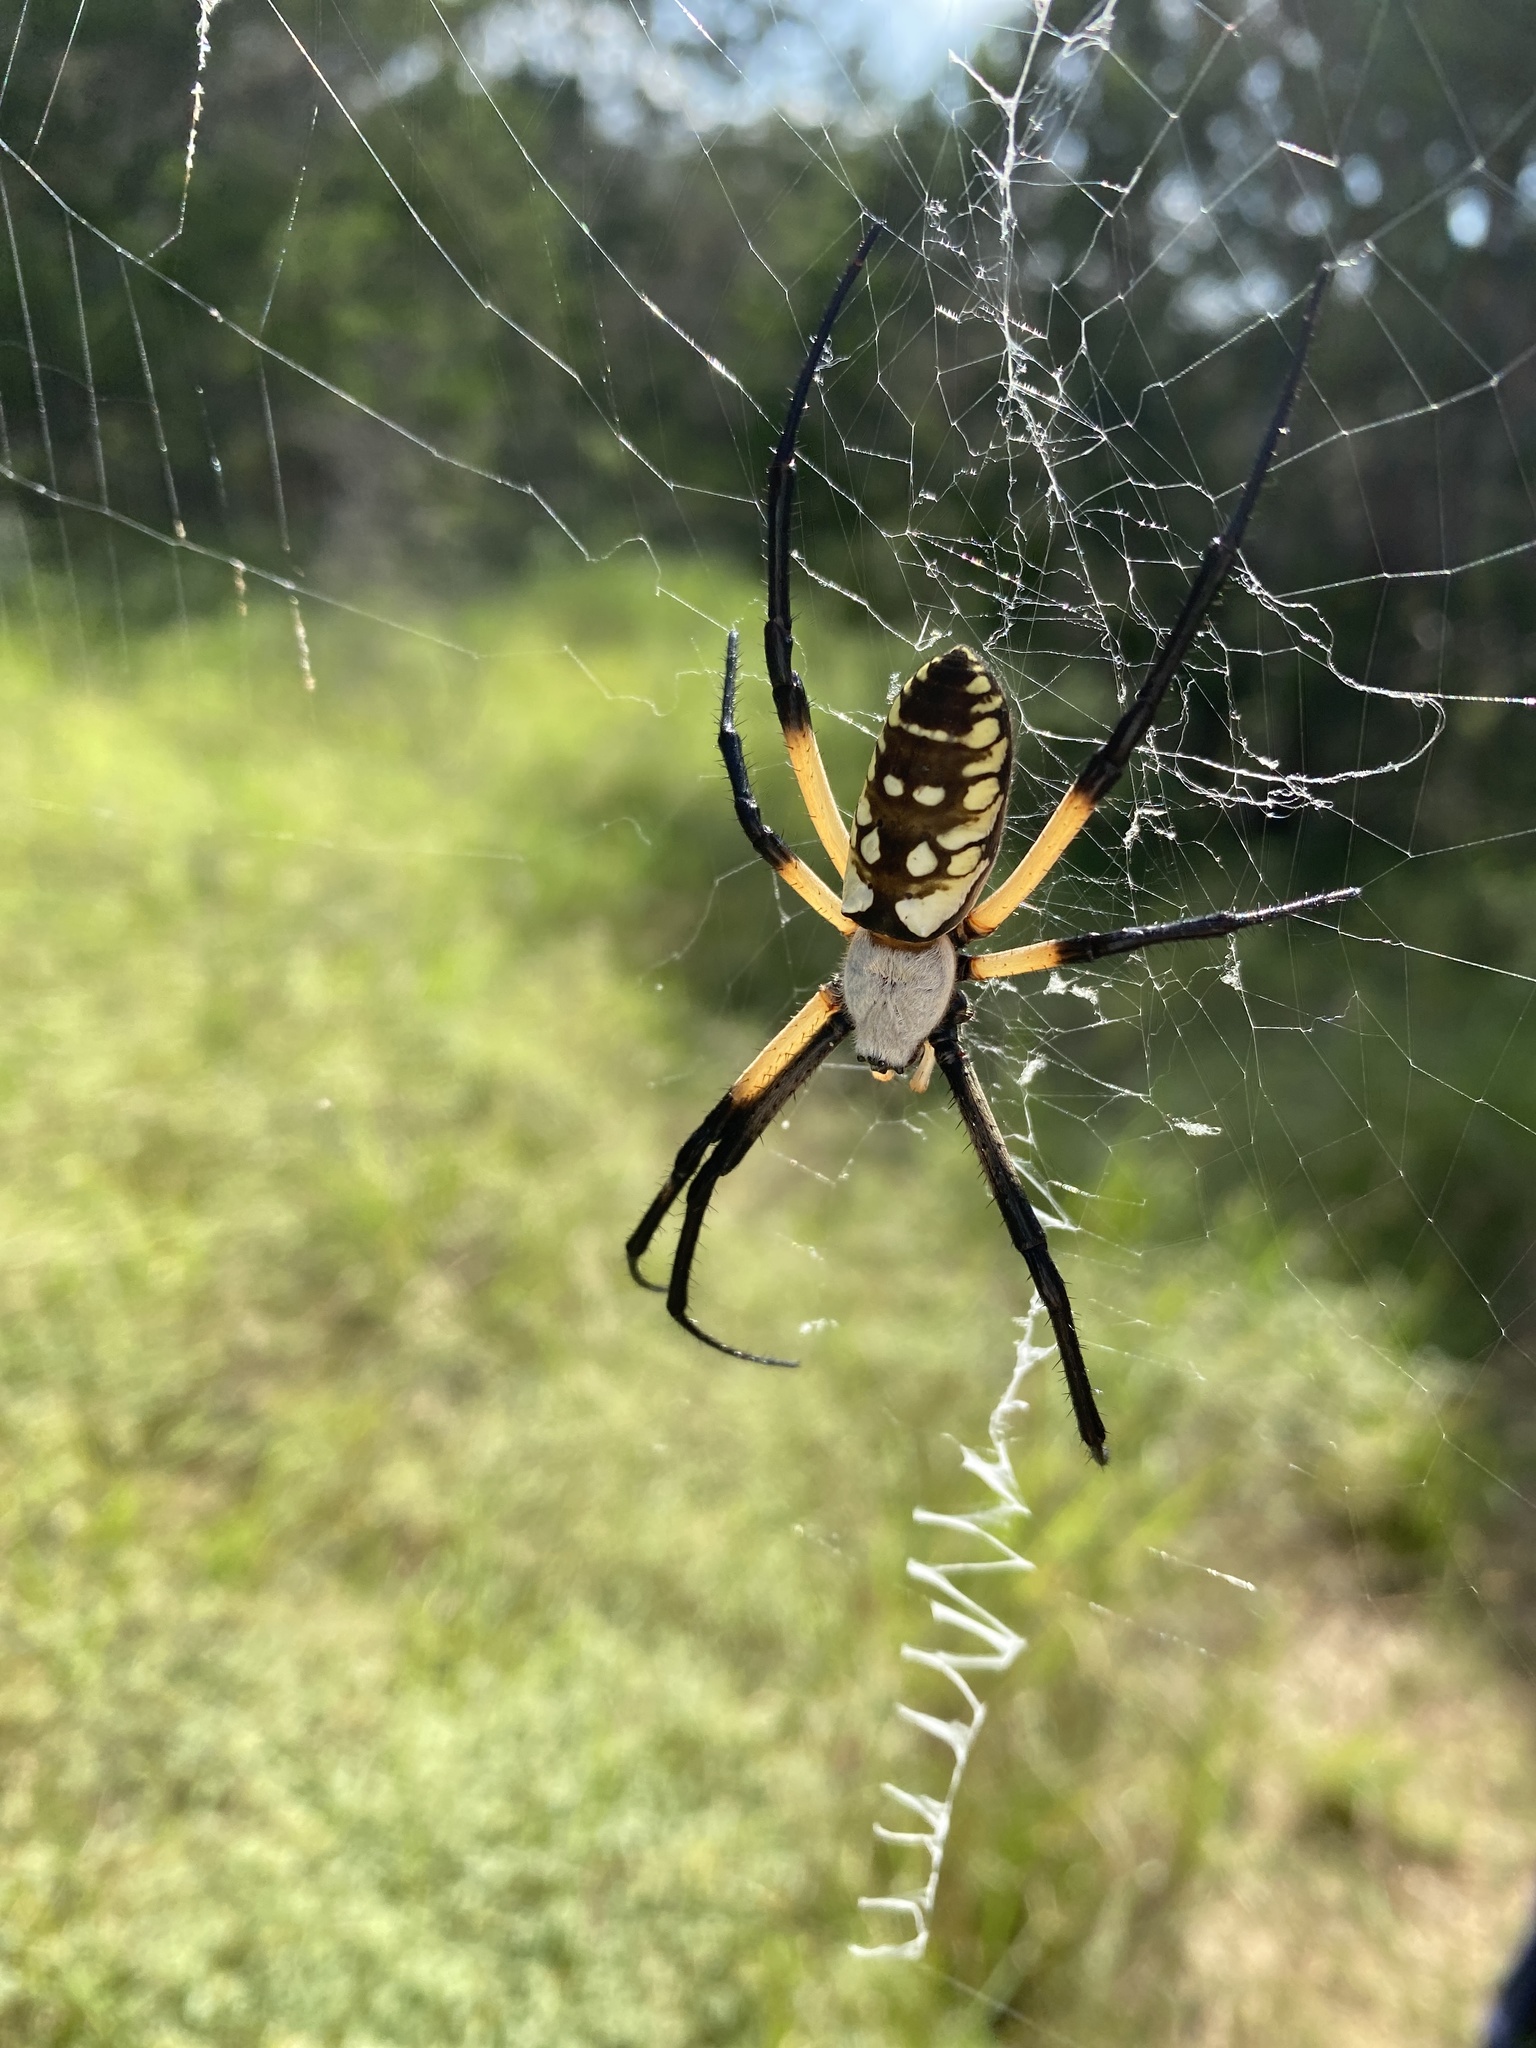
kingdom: Animalia
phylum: Arthropoda
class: Arachnida
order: Araneae
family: Araneidae
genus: Argiope
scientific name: Argiope aurantia
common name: Orb weavers
